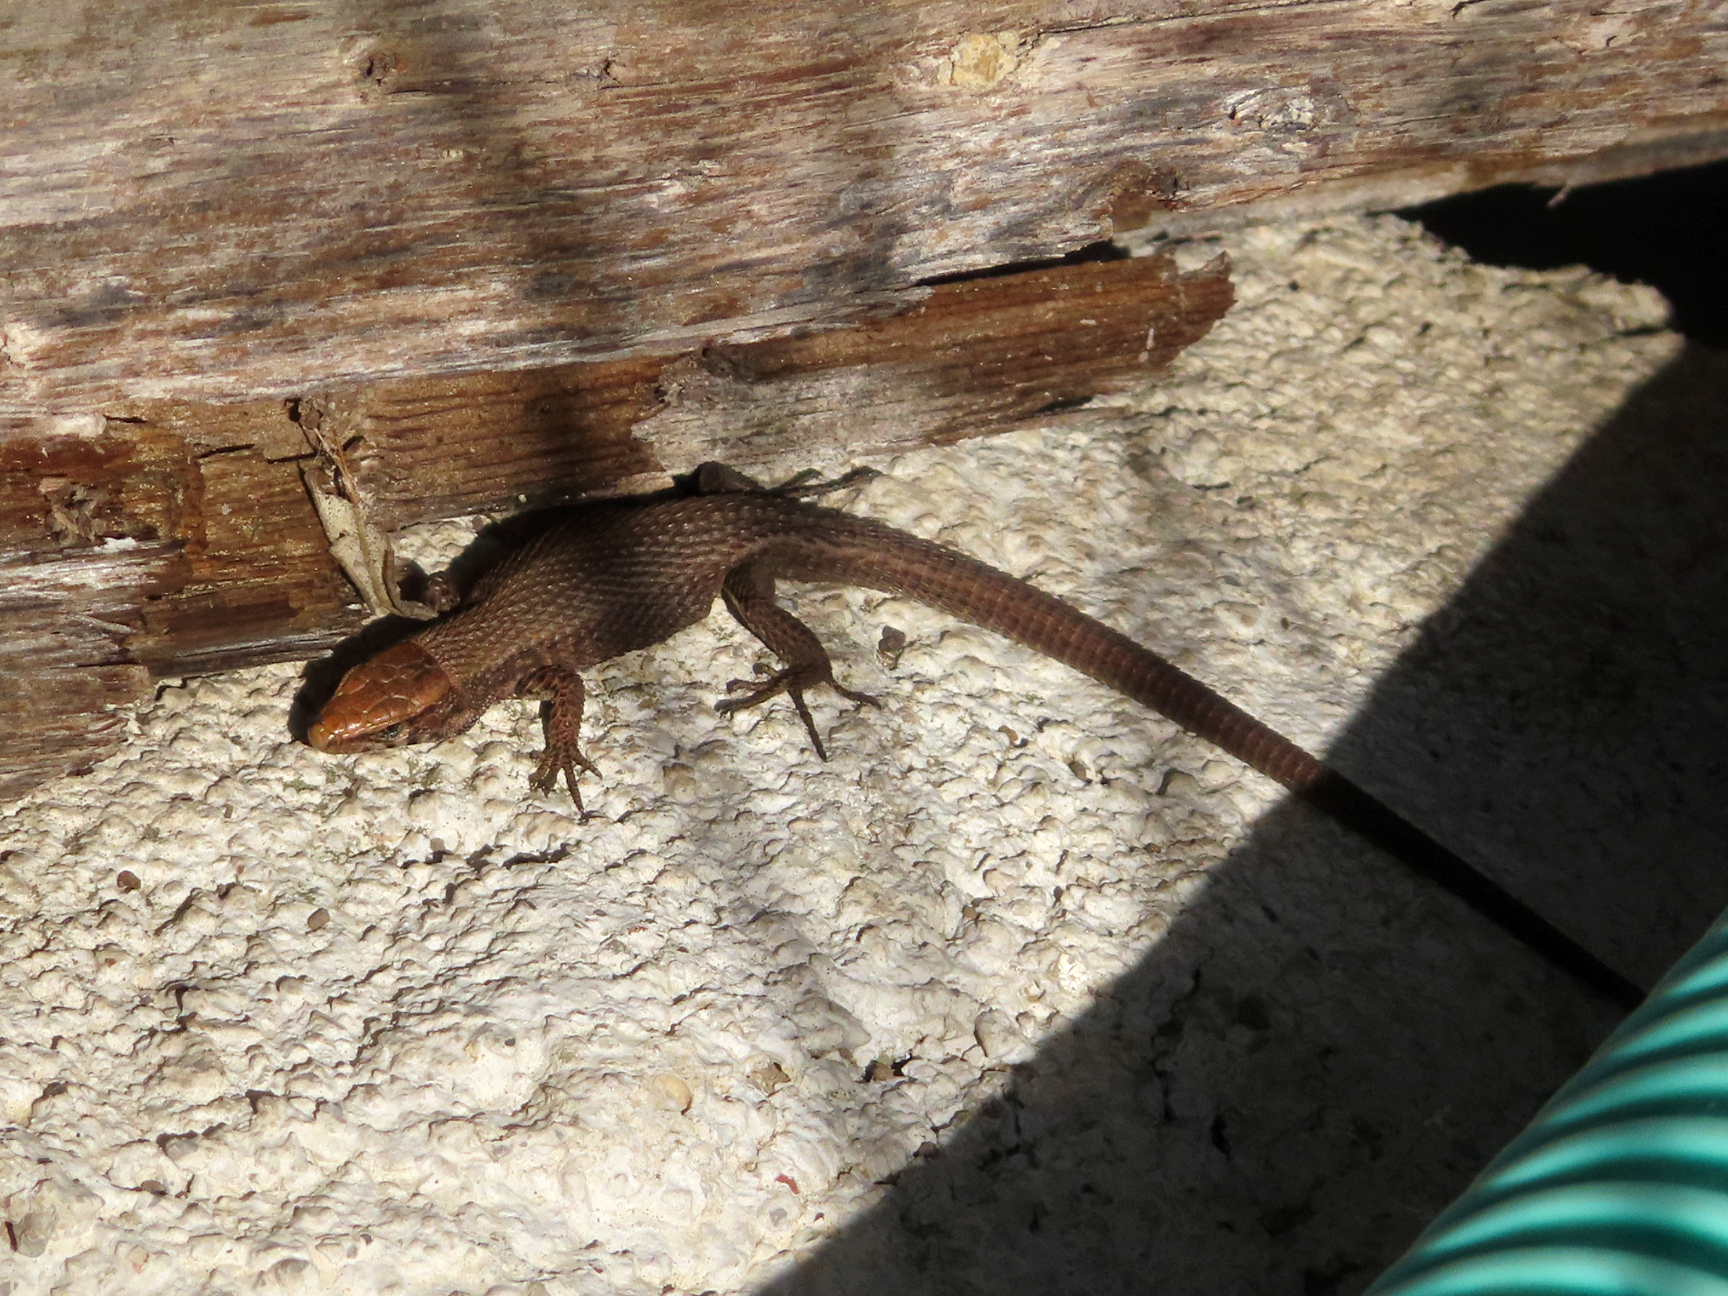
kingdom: Animalia
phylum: Chordata
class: Squamata
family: Lacertidae
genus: Algyroides
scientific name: Algyroides moreoticus
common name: Greek algyroides
